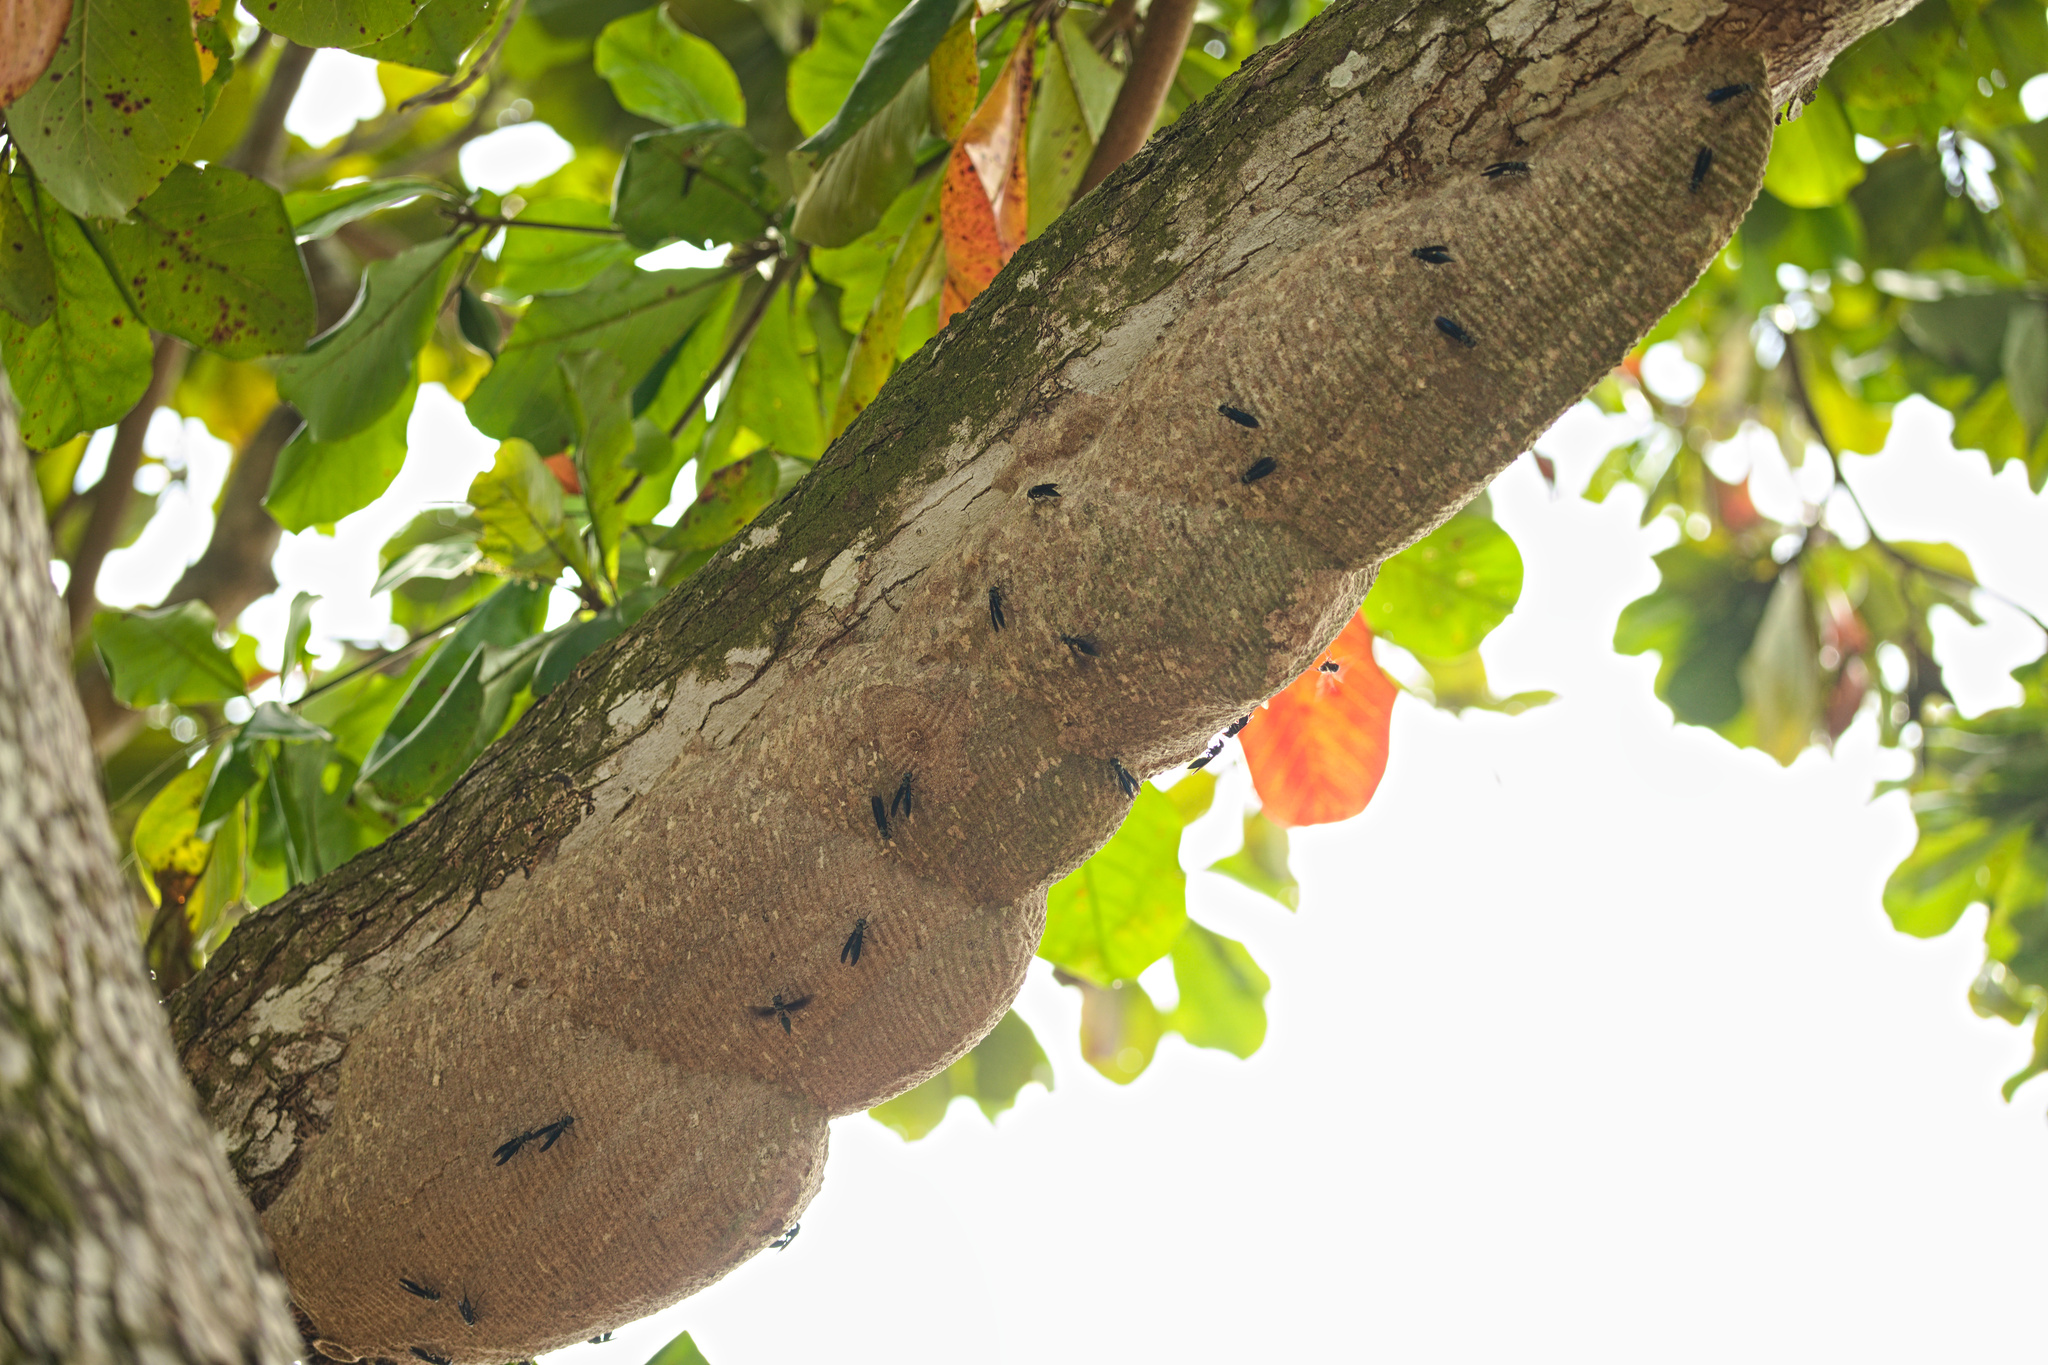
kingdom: Animalia
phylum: Arthropoda
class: Insecta
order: Hymenoptera
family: Vespidae
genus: Synoeca
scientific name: Synoeca septentrionalis
